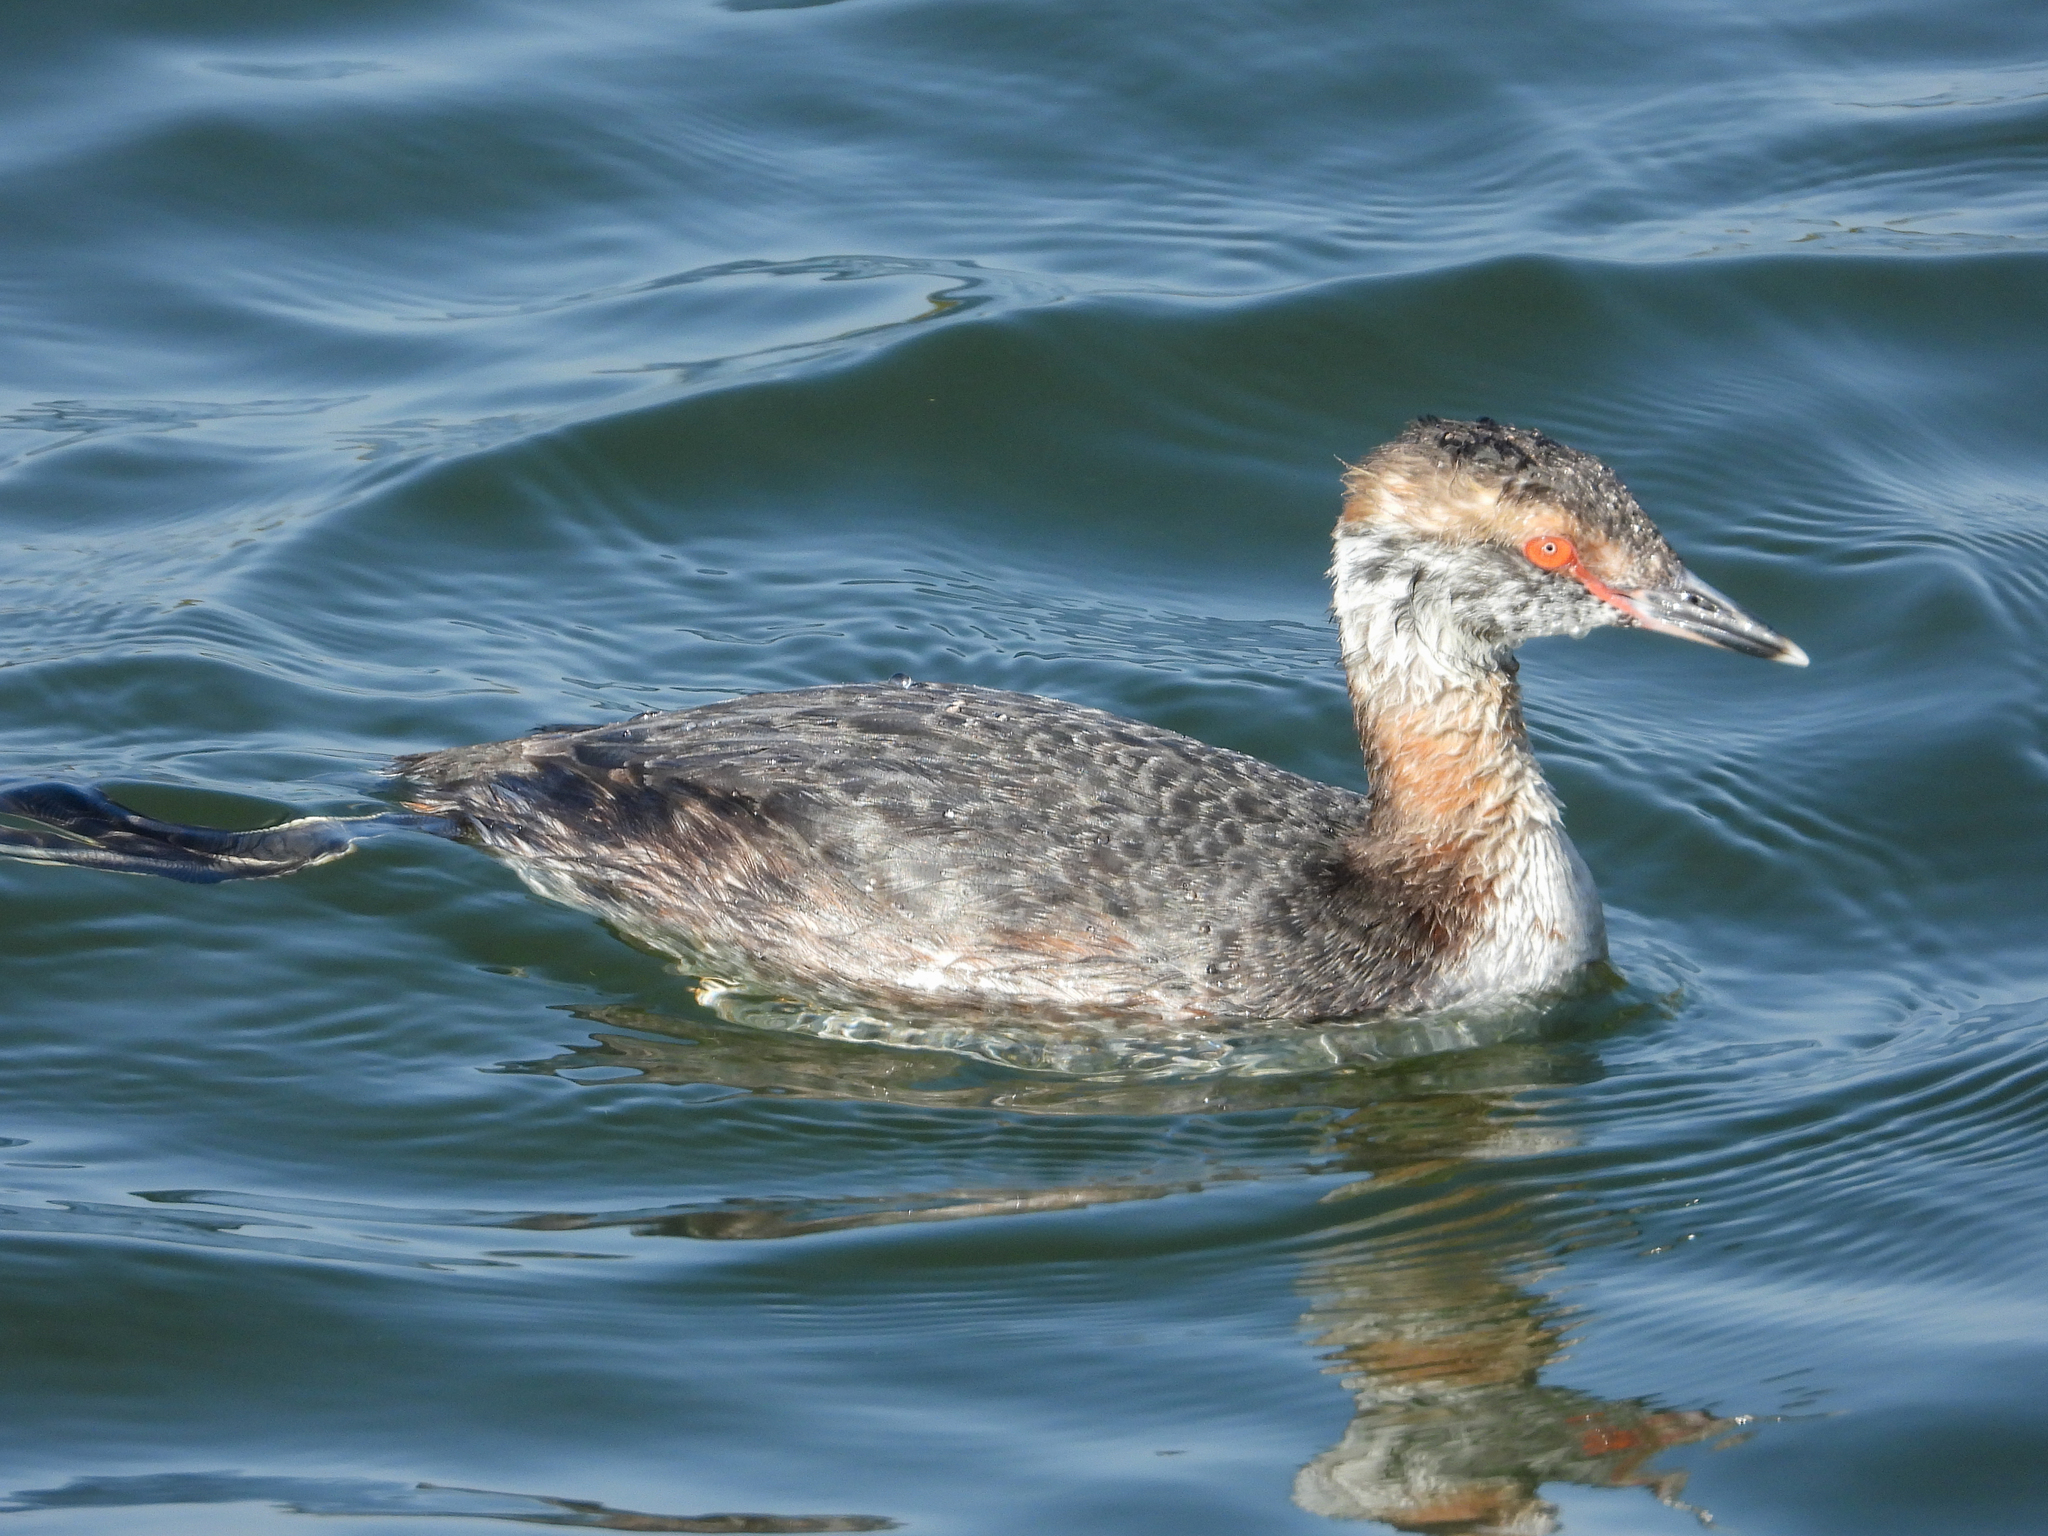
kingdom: Animalia
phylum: Chordata
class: Aves
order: Podicipediformes
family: Podicipedidae
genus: Podiceps
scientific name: Podiceps auritus
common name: Horned grebe
